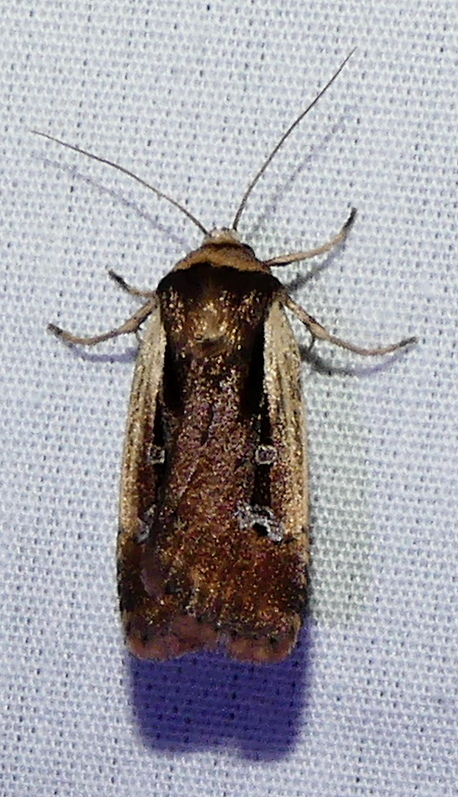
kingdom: Animalia
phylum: Arthropoda
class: Insecta
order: Lepidoptera
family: Noctuidae
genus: Ochropleura
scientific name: Ochropleura implecta
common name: Flame-shouldered dart
